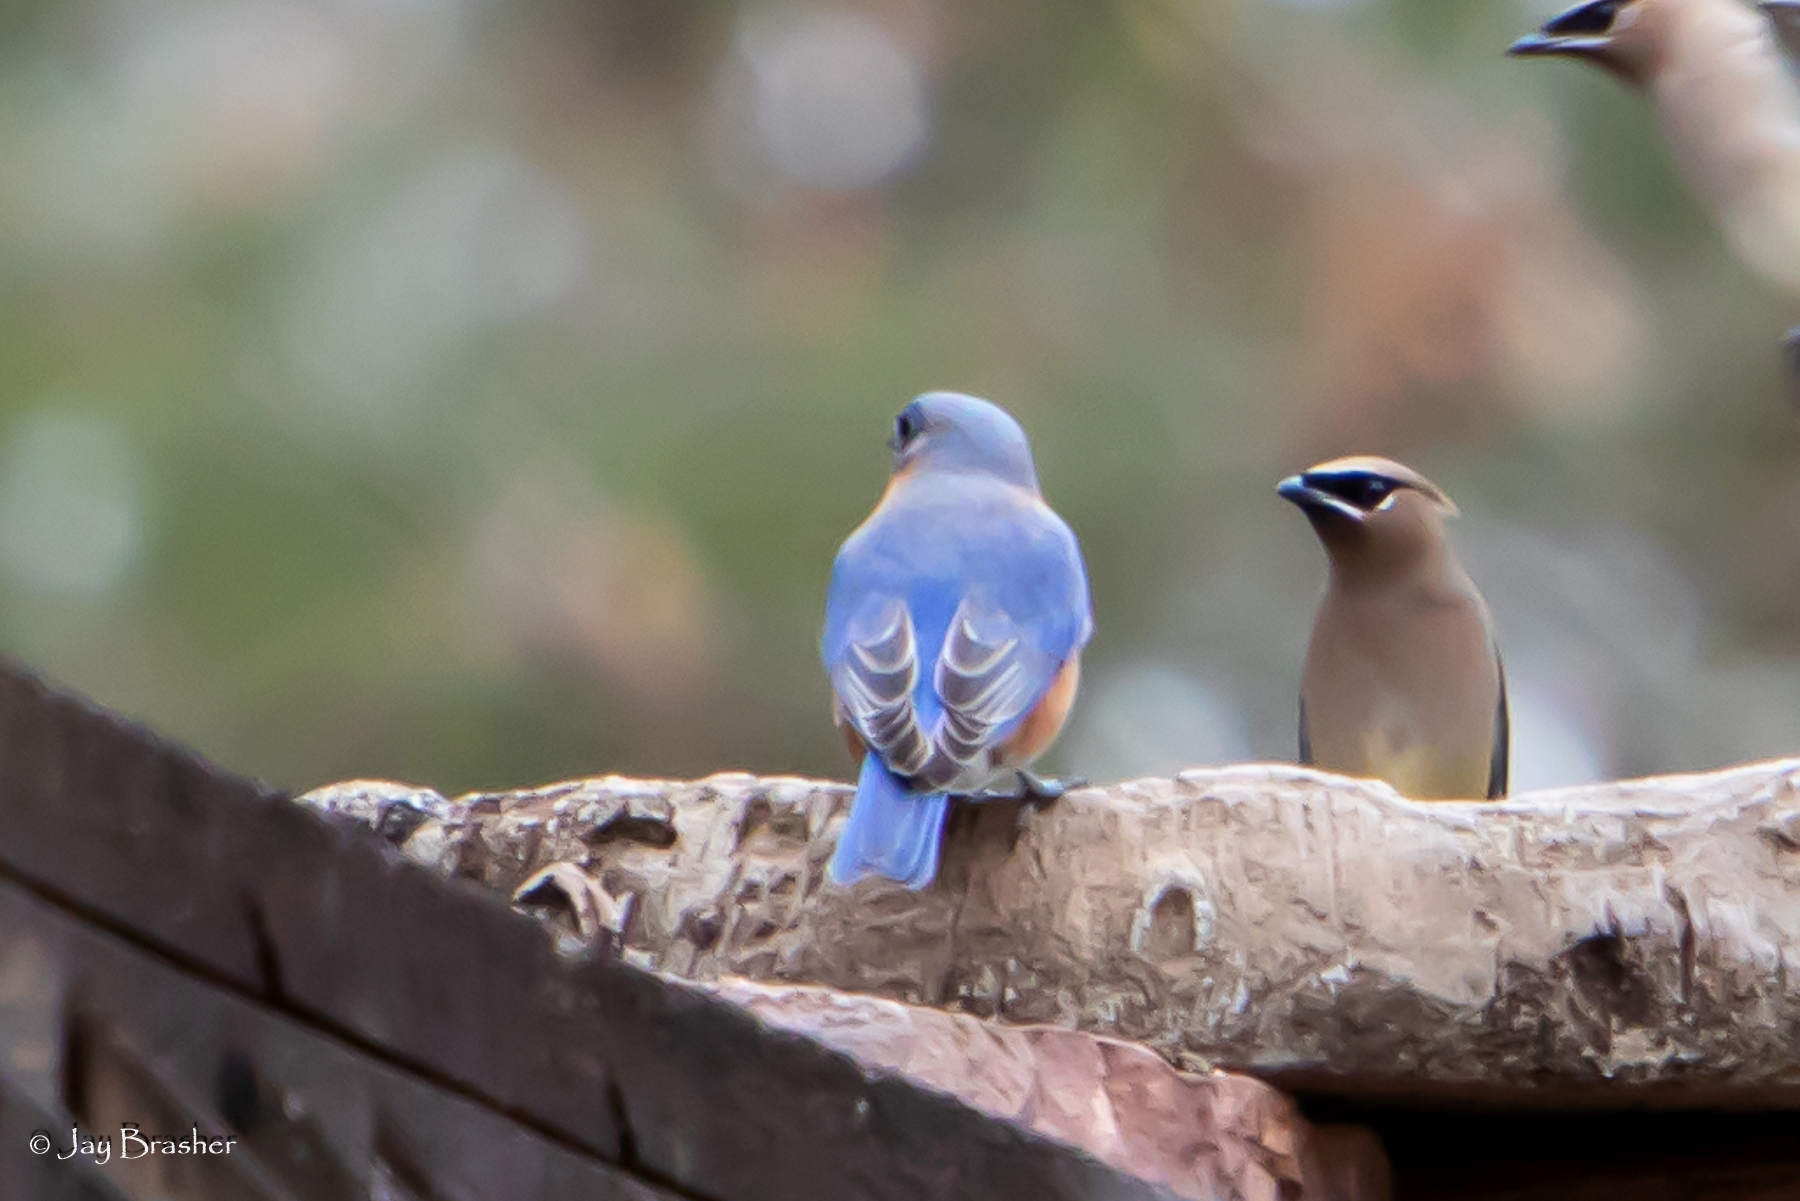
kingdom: Animalia
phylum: Chordata
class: Aves
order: Passeriformes
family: Turdidae
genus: Sialia
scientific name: Sialia sialis
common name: Eastern bluebird
